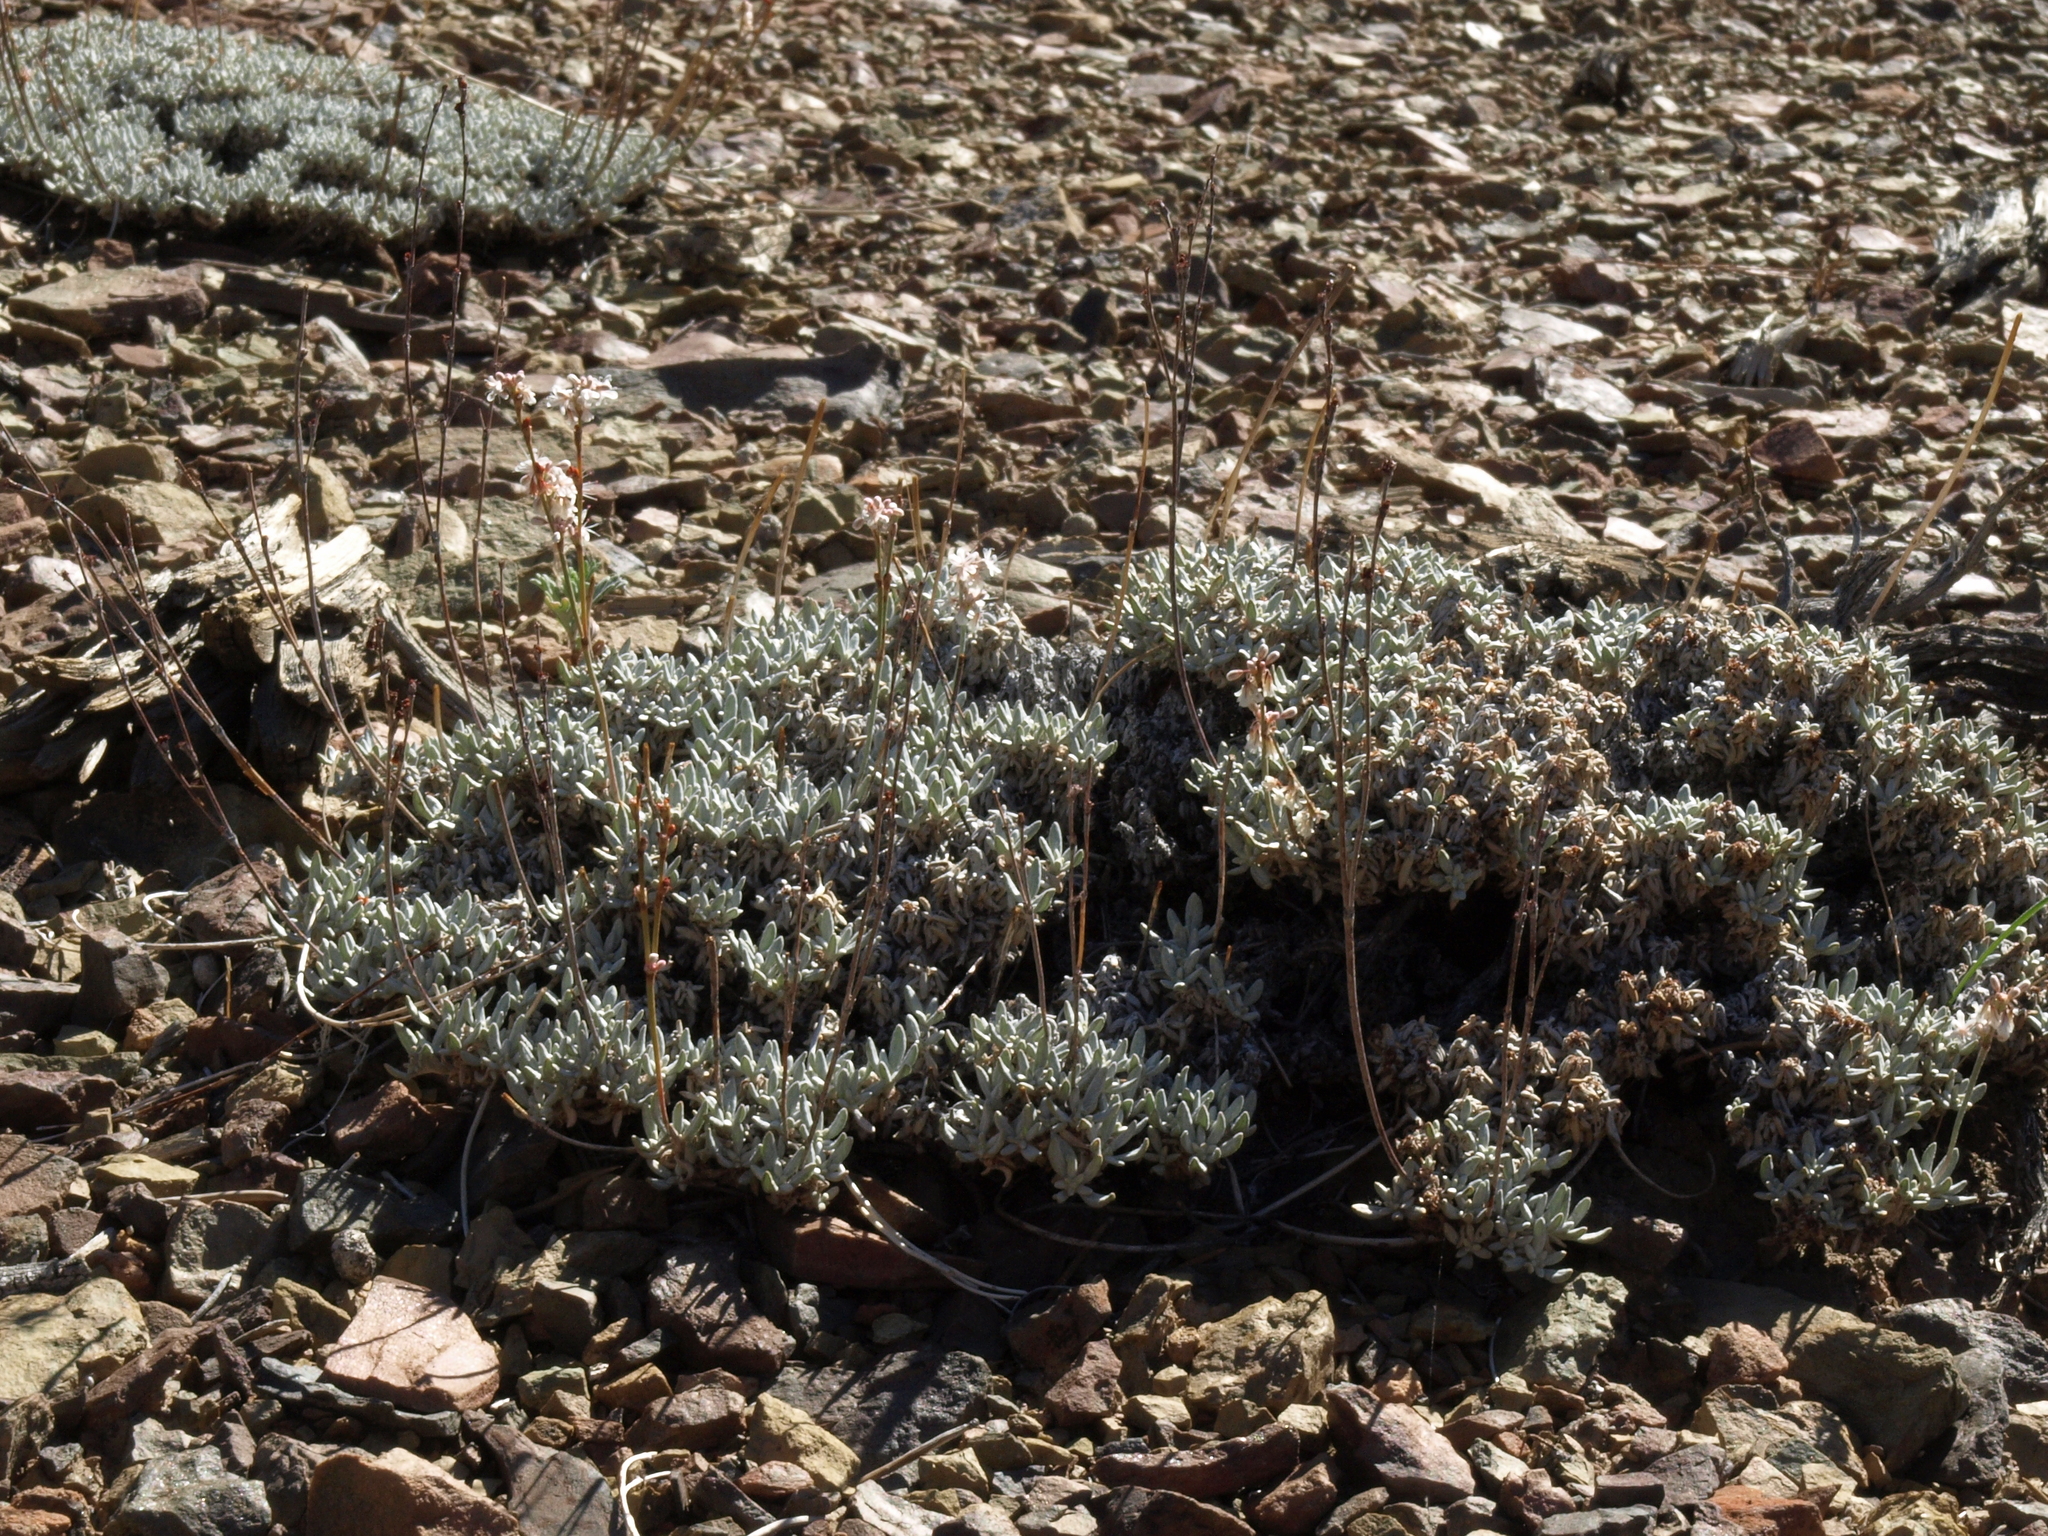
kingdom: Plantae
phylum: Tracheophyta
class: Magnoliopsida
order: Caryophyllales
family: Polygonaceae
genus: Eriogonum
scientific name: Eriogonum wrightii
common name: Bastard-sage
